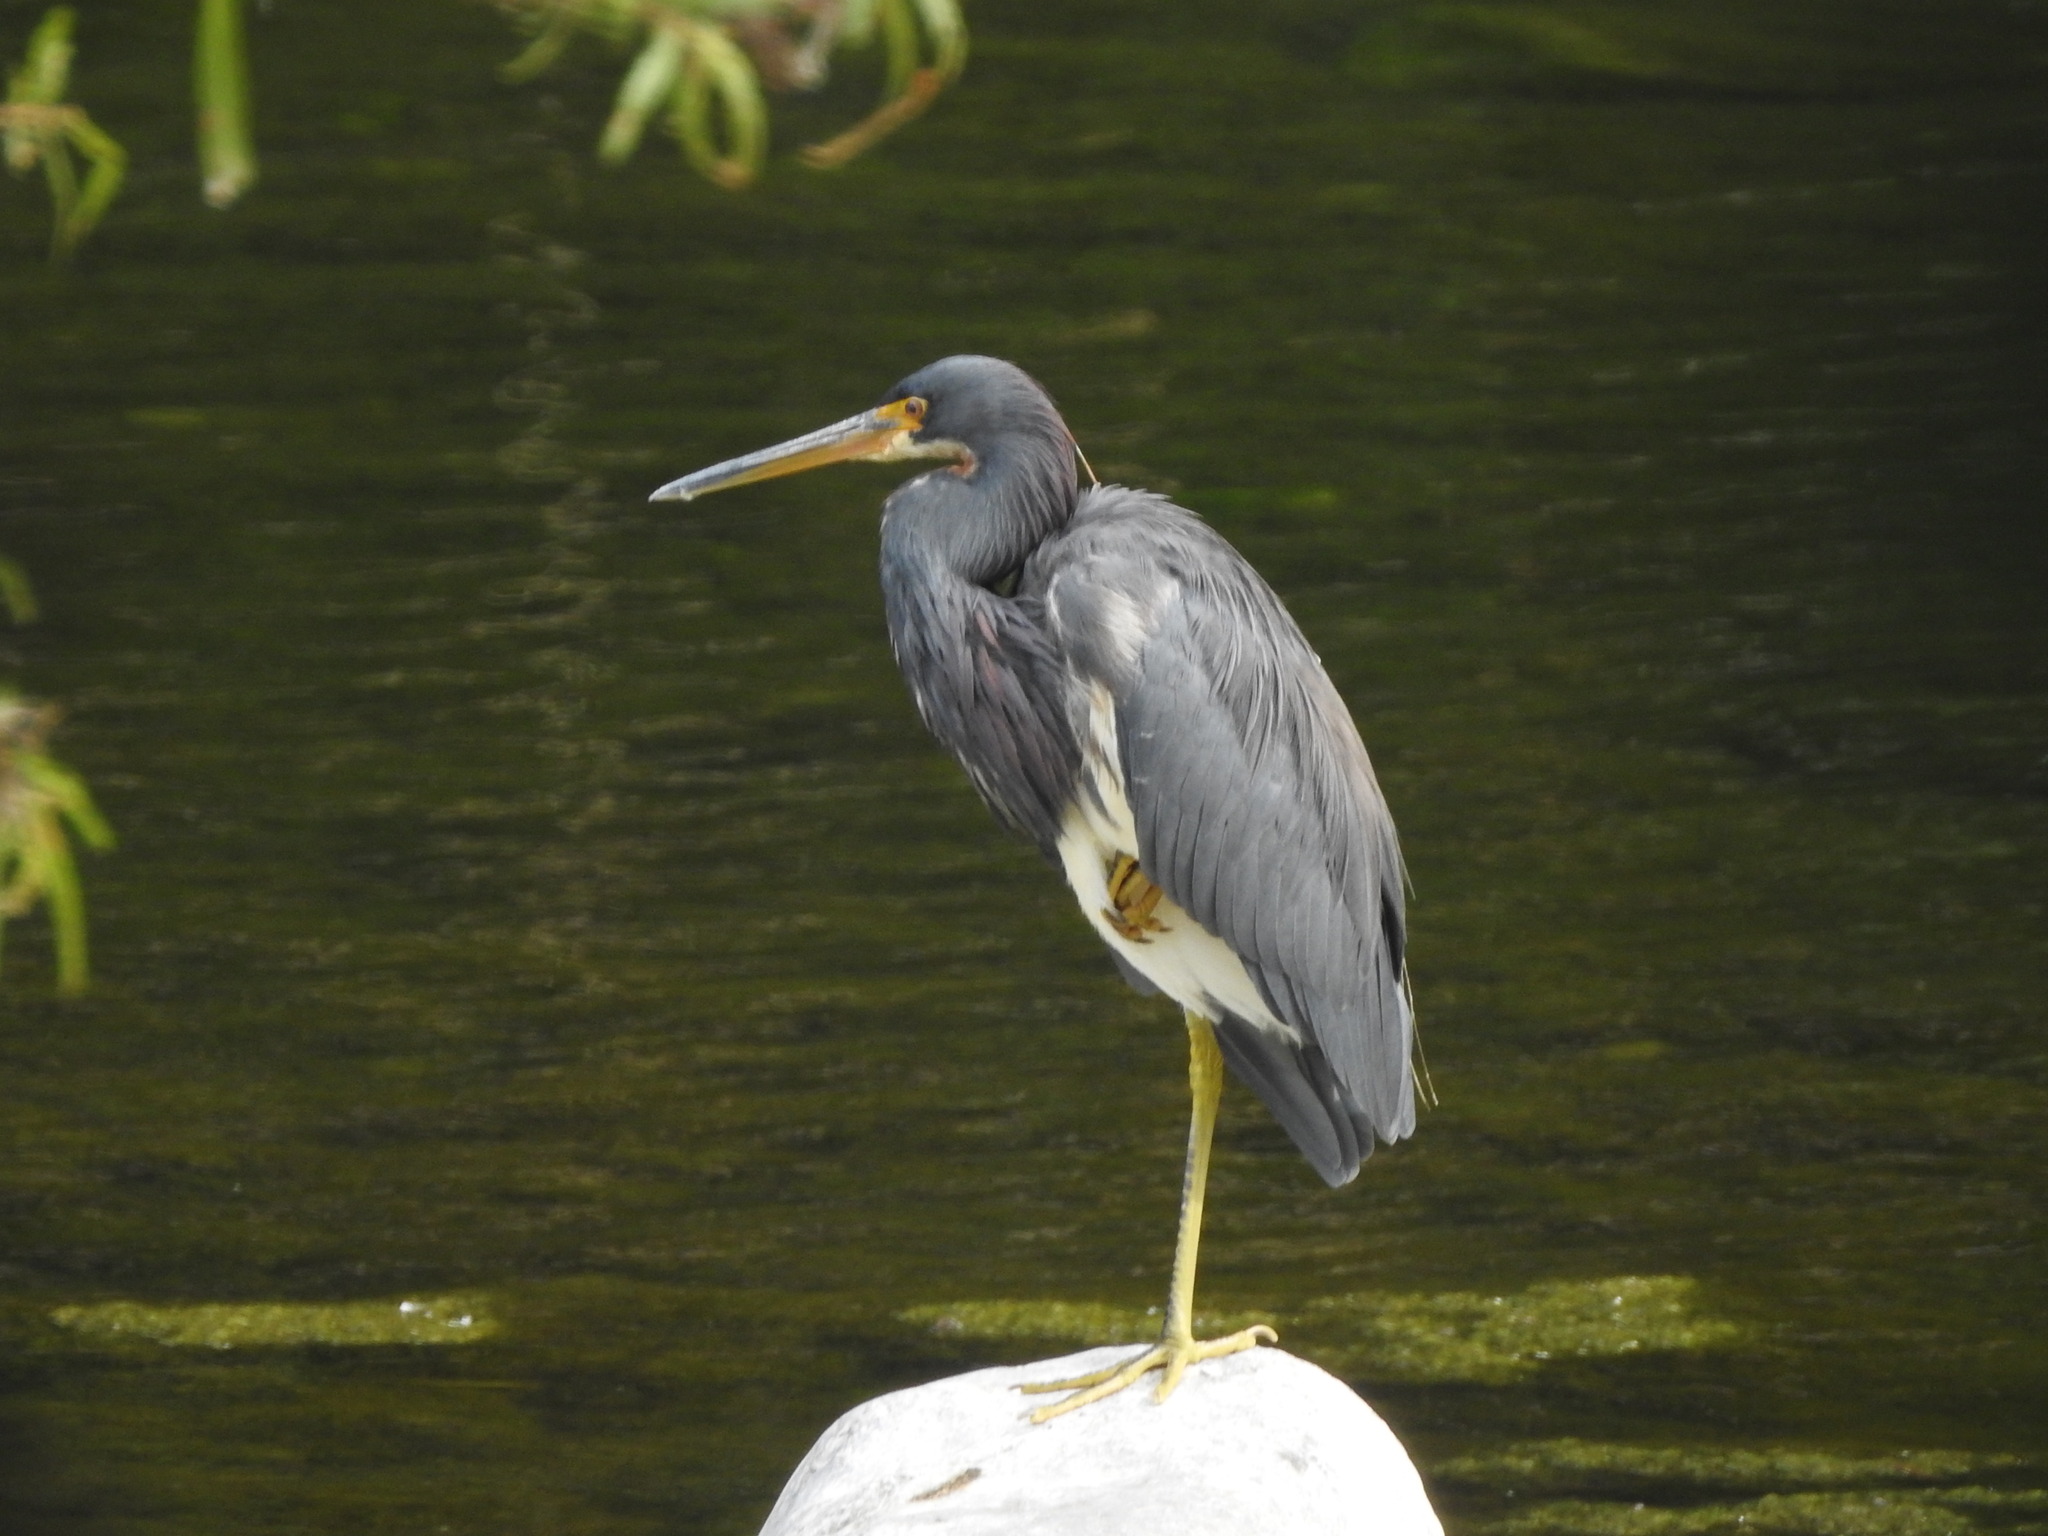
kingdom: Animalia
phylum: Chordata
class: Aves
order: Pelecaniformes
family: Ardeidae
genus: Egretta
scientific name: Egretta tricolor
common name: Tricolored heron
